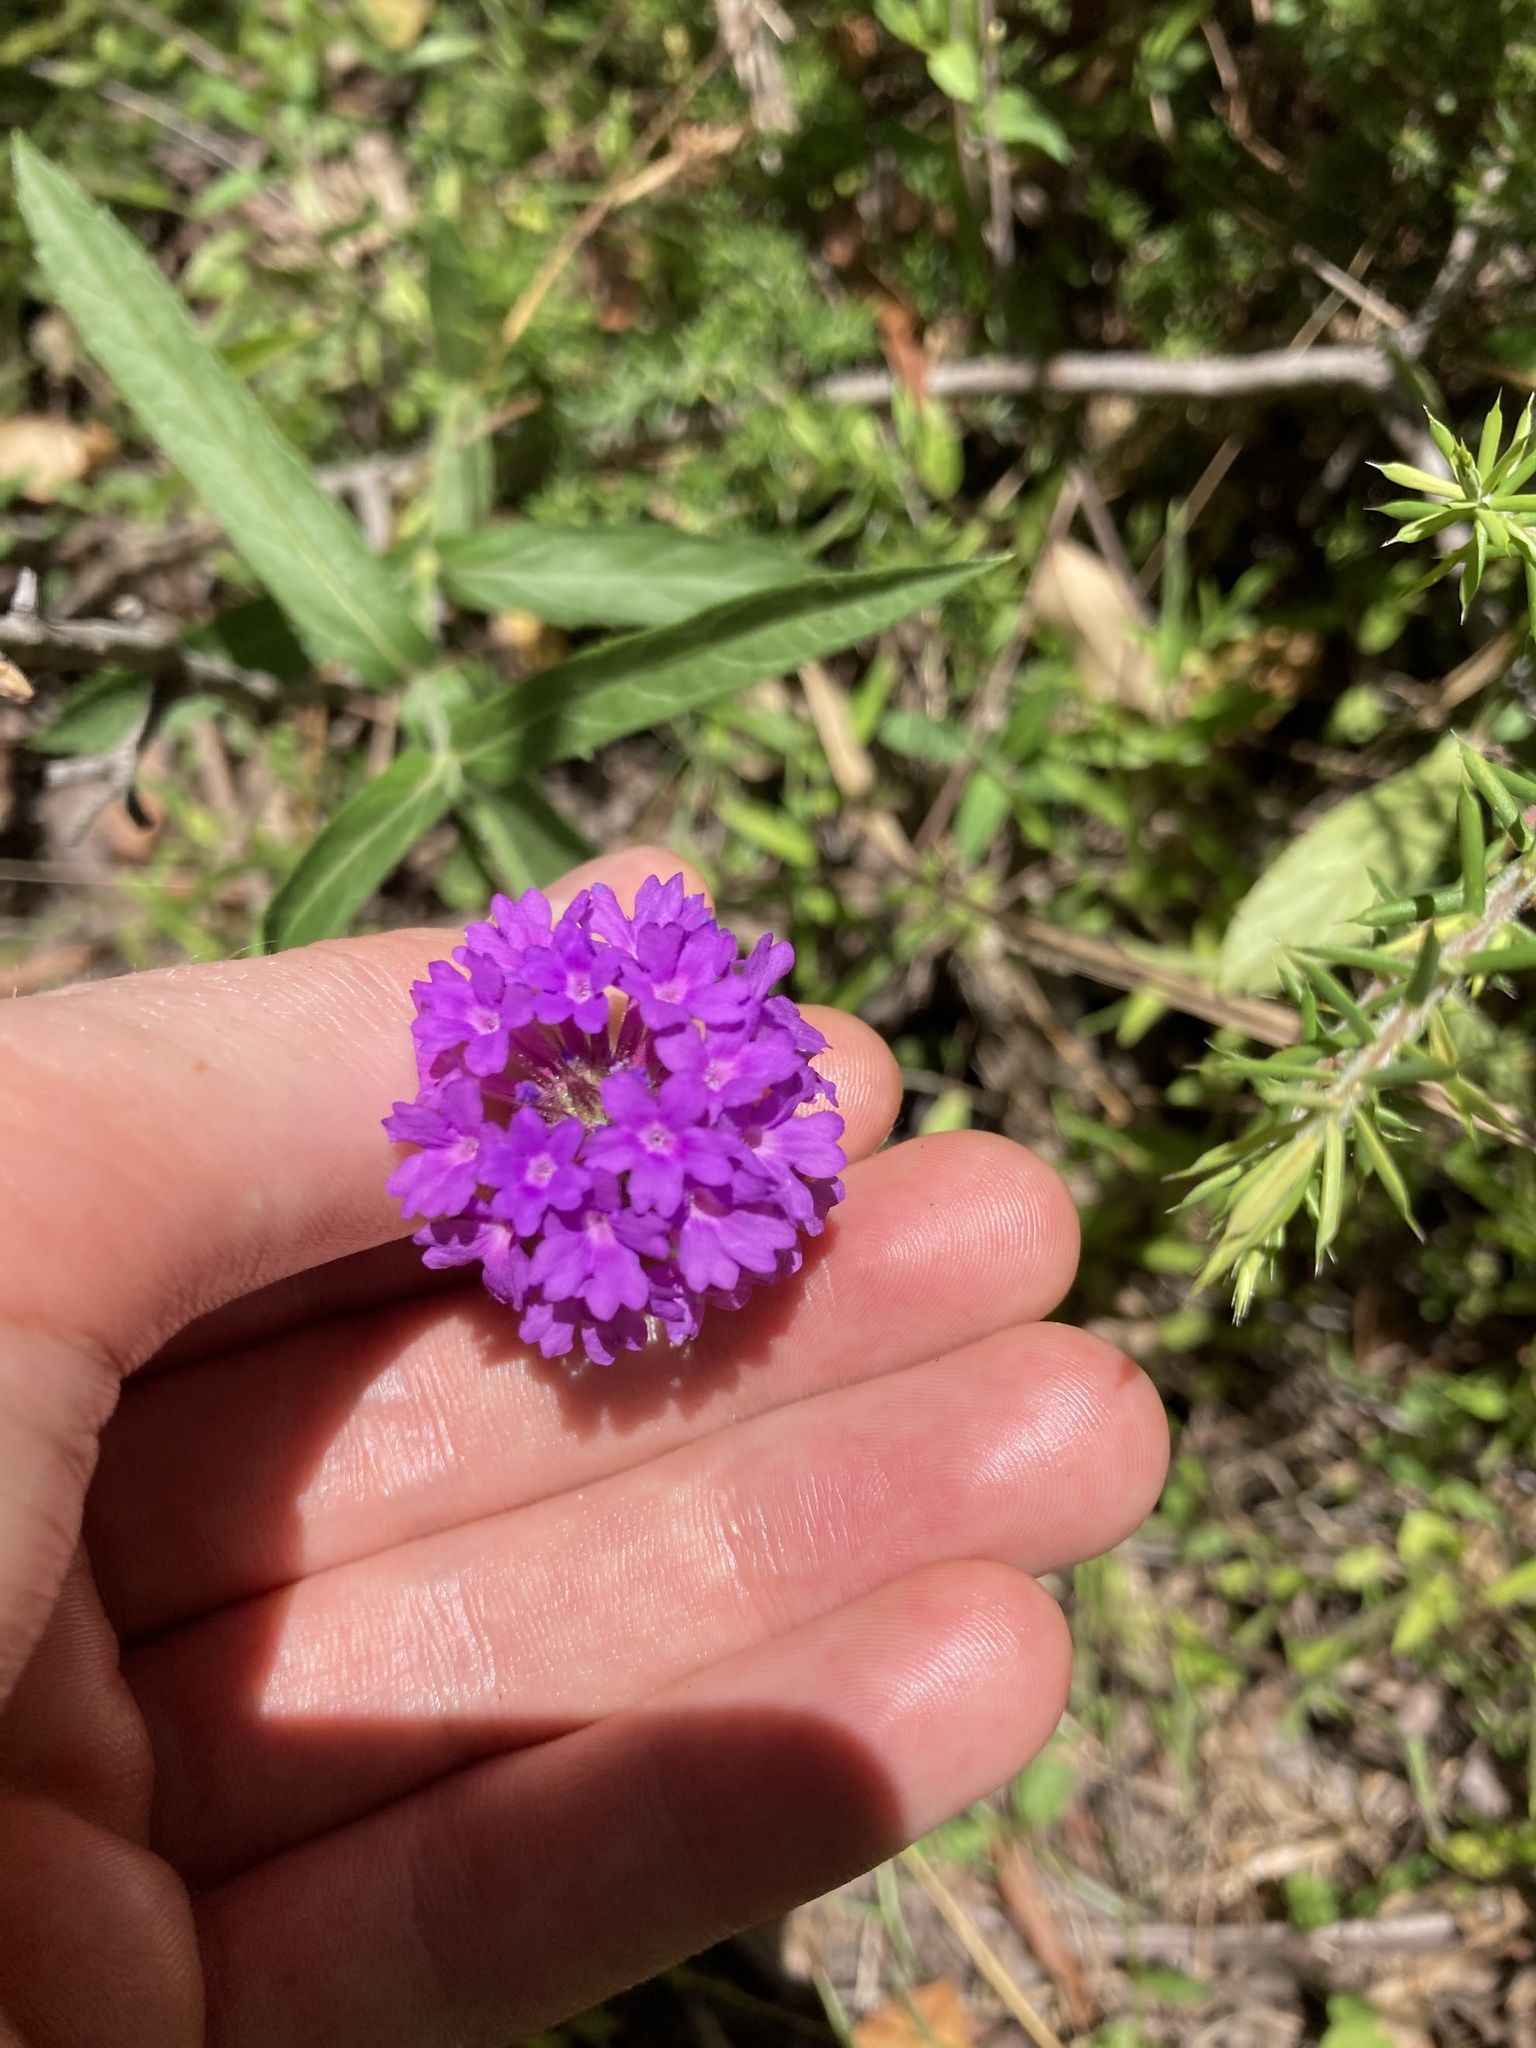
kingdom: Plantae
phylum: Tracheophyta
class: Magnoliopsida
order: Lamiales
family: Verbenaceae
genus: Verbena
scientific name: Verbena rigida
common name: Slender vervain
